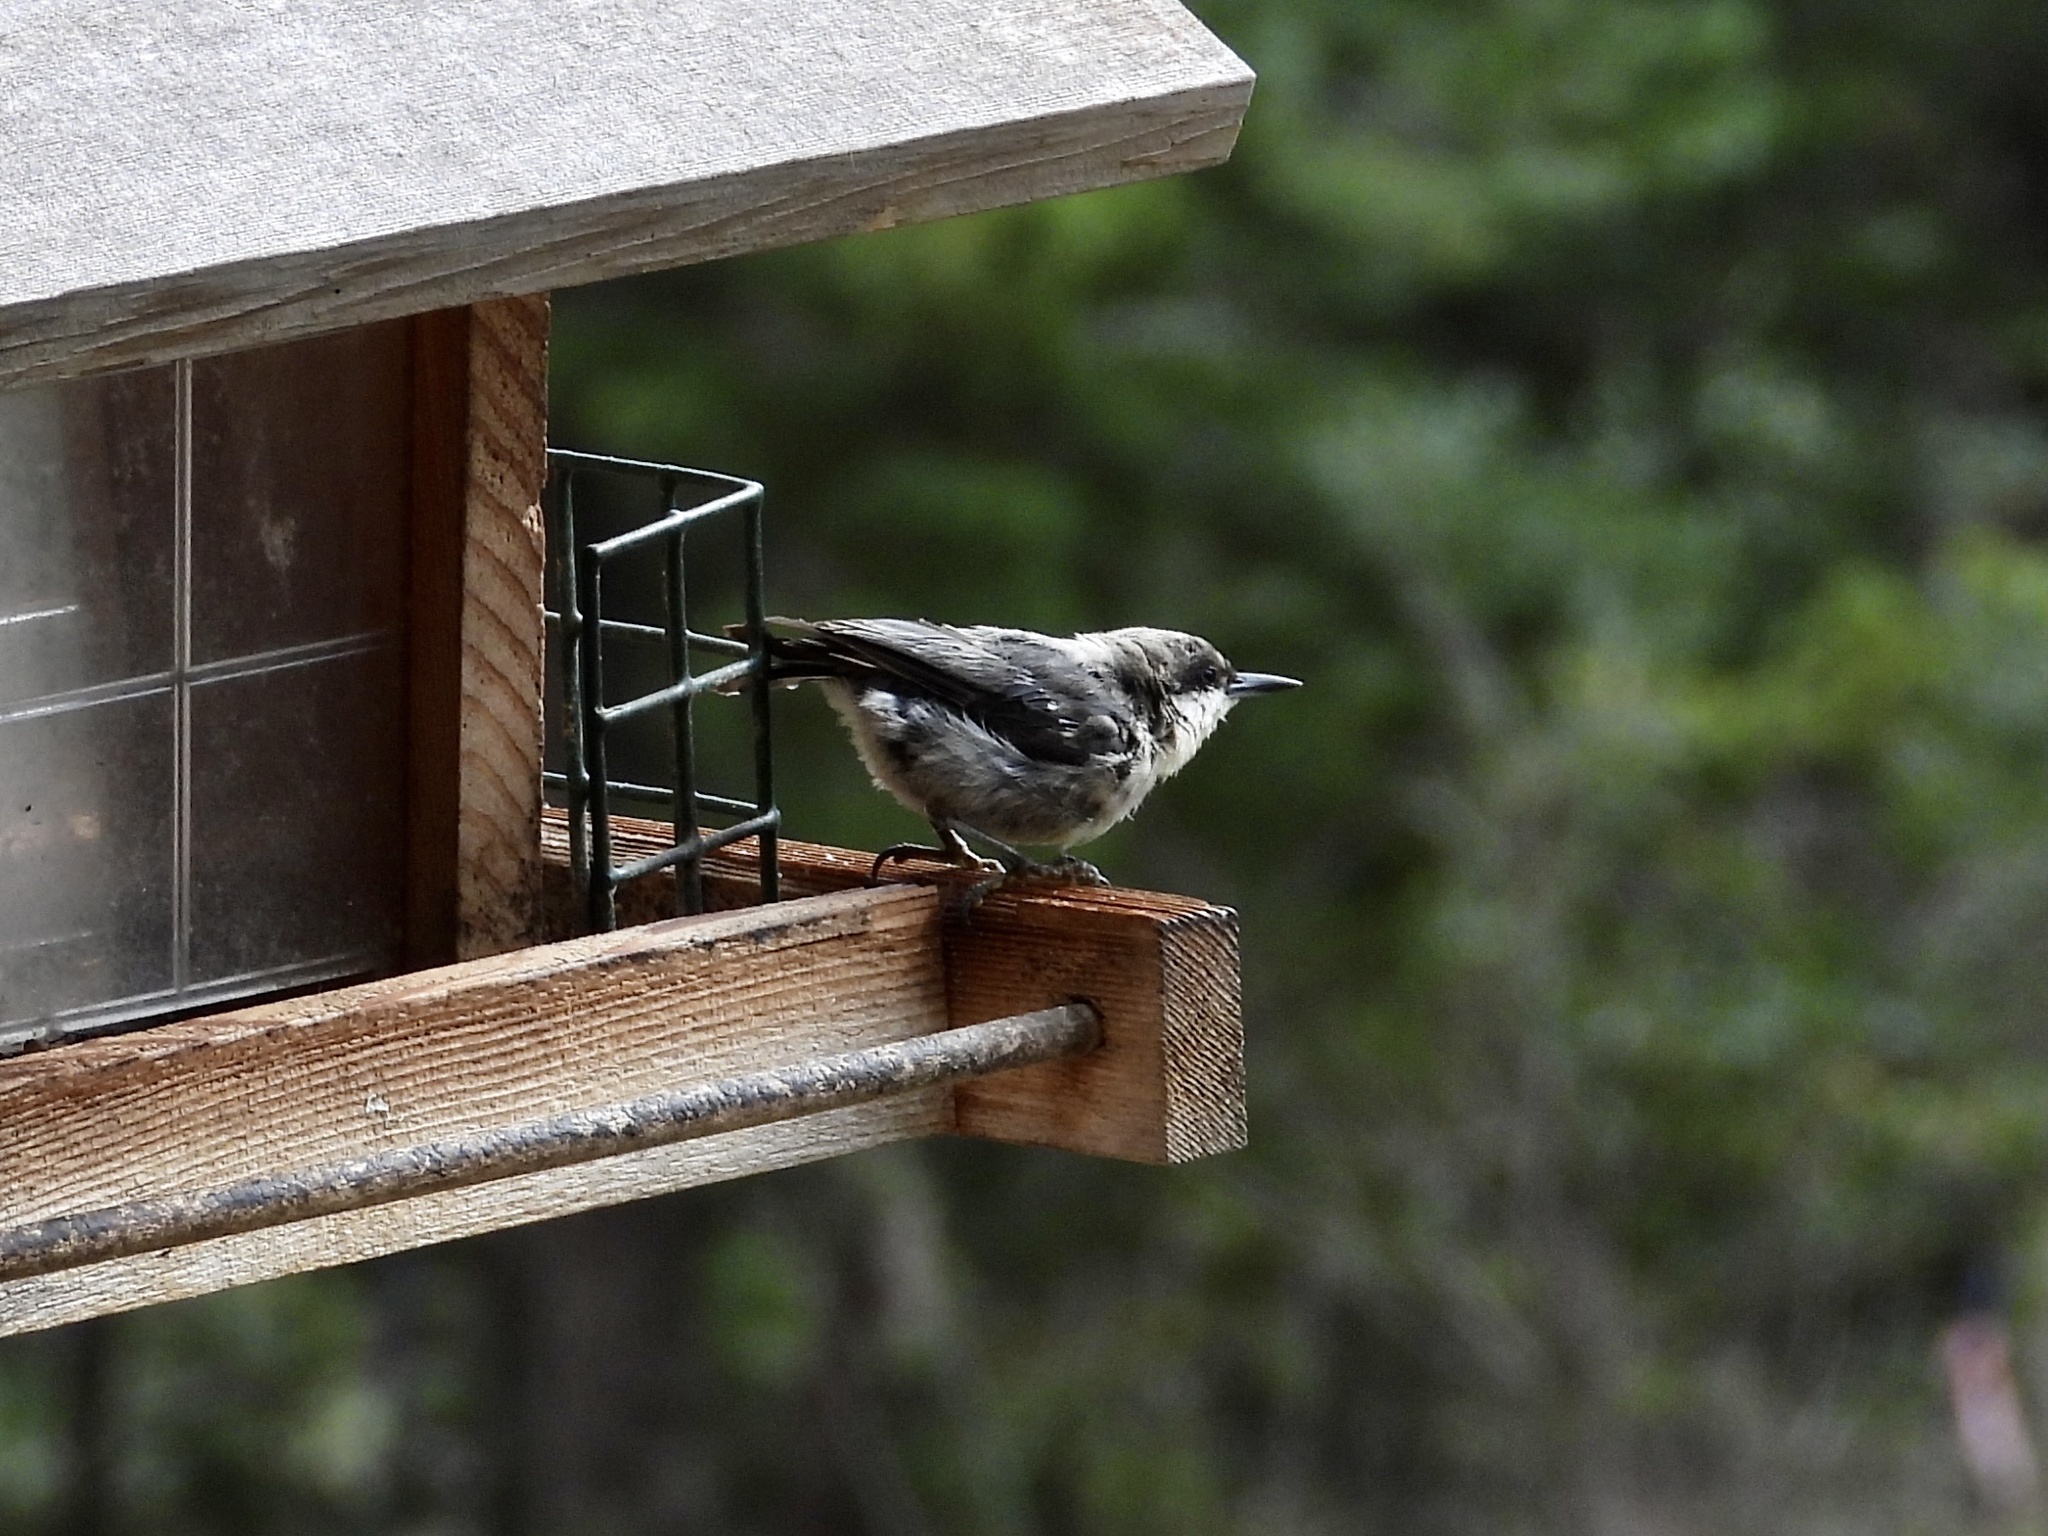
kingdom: Animalia
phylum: Chordata
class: Aves
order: Passeriformes
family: Sittidae
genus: Sitta
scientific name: Sitta pygmaea
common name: Pygmy nuthatch
